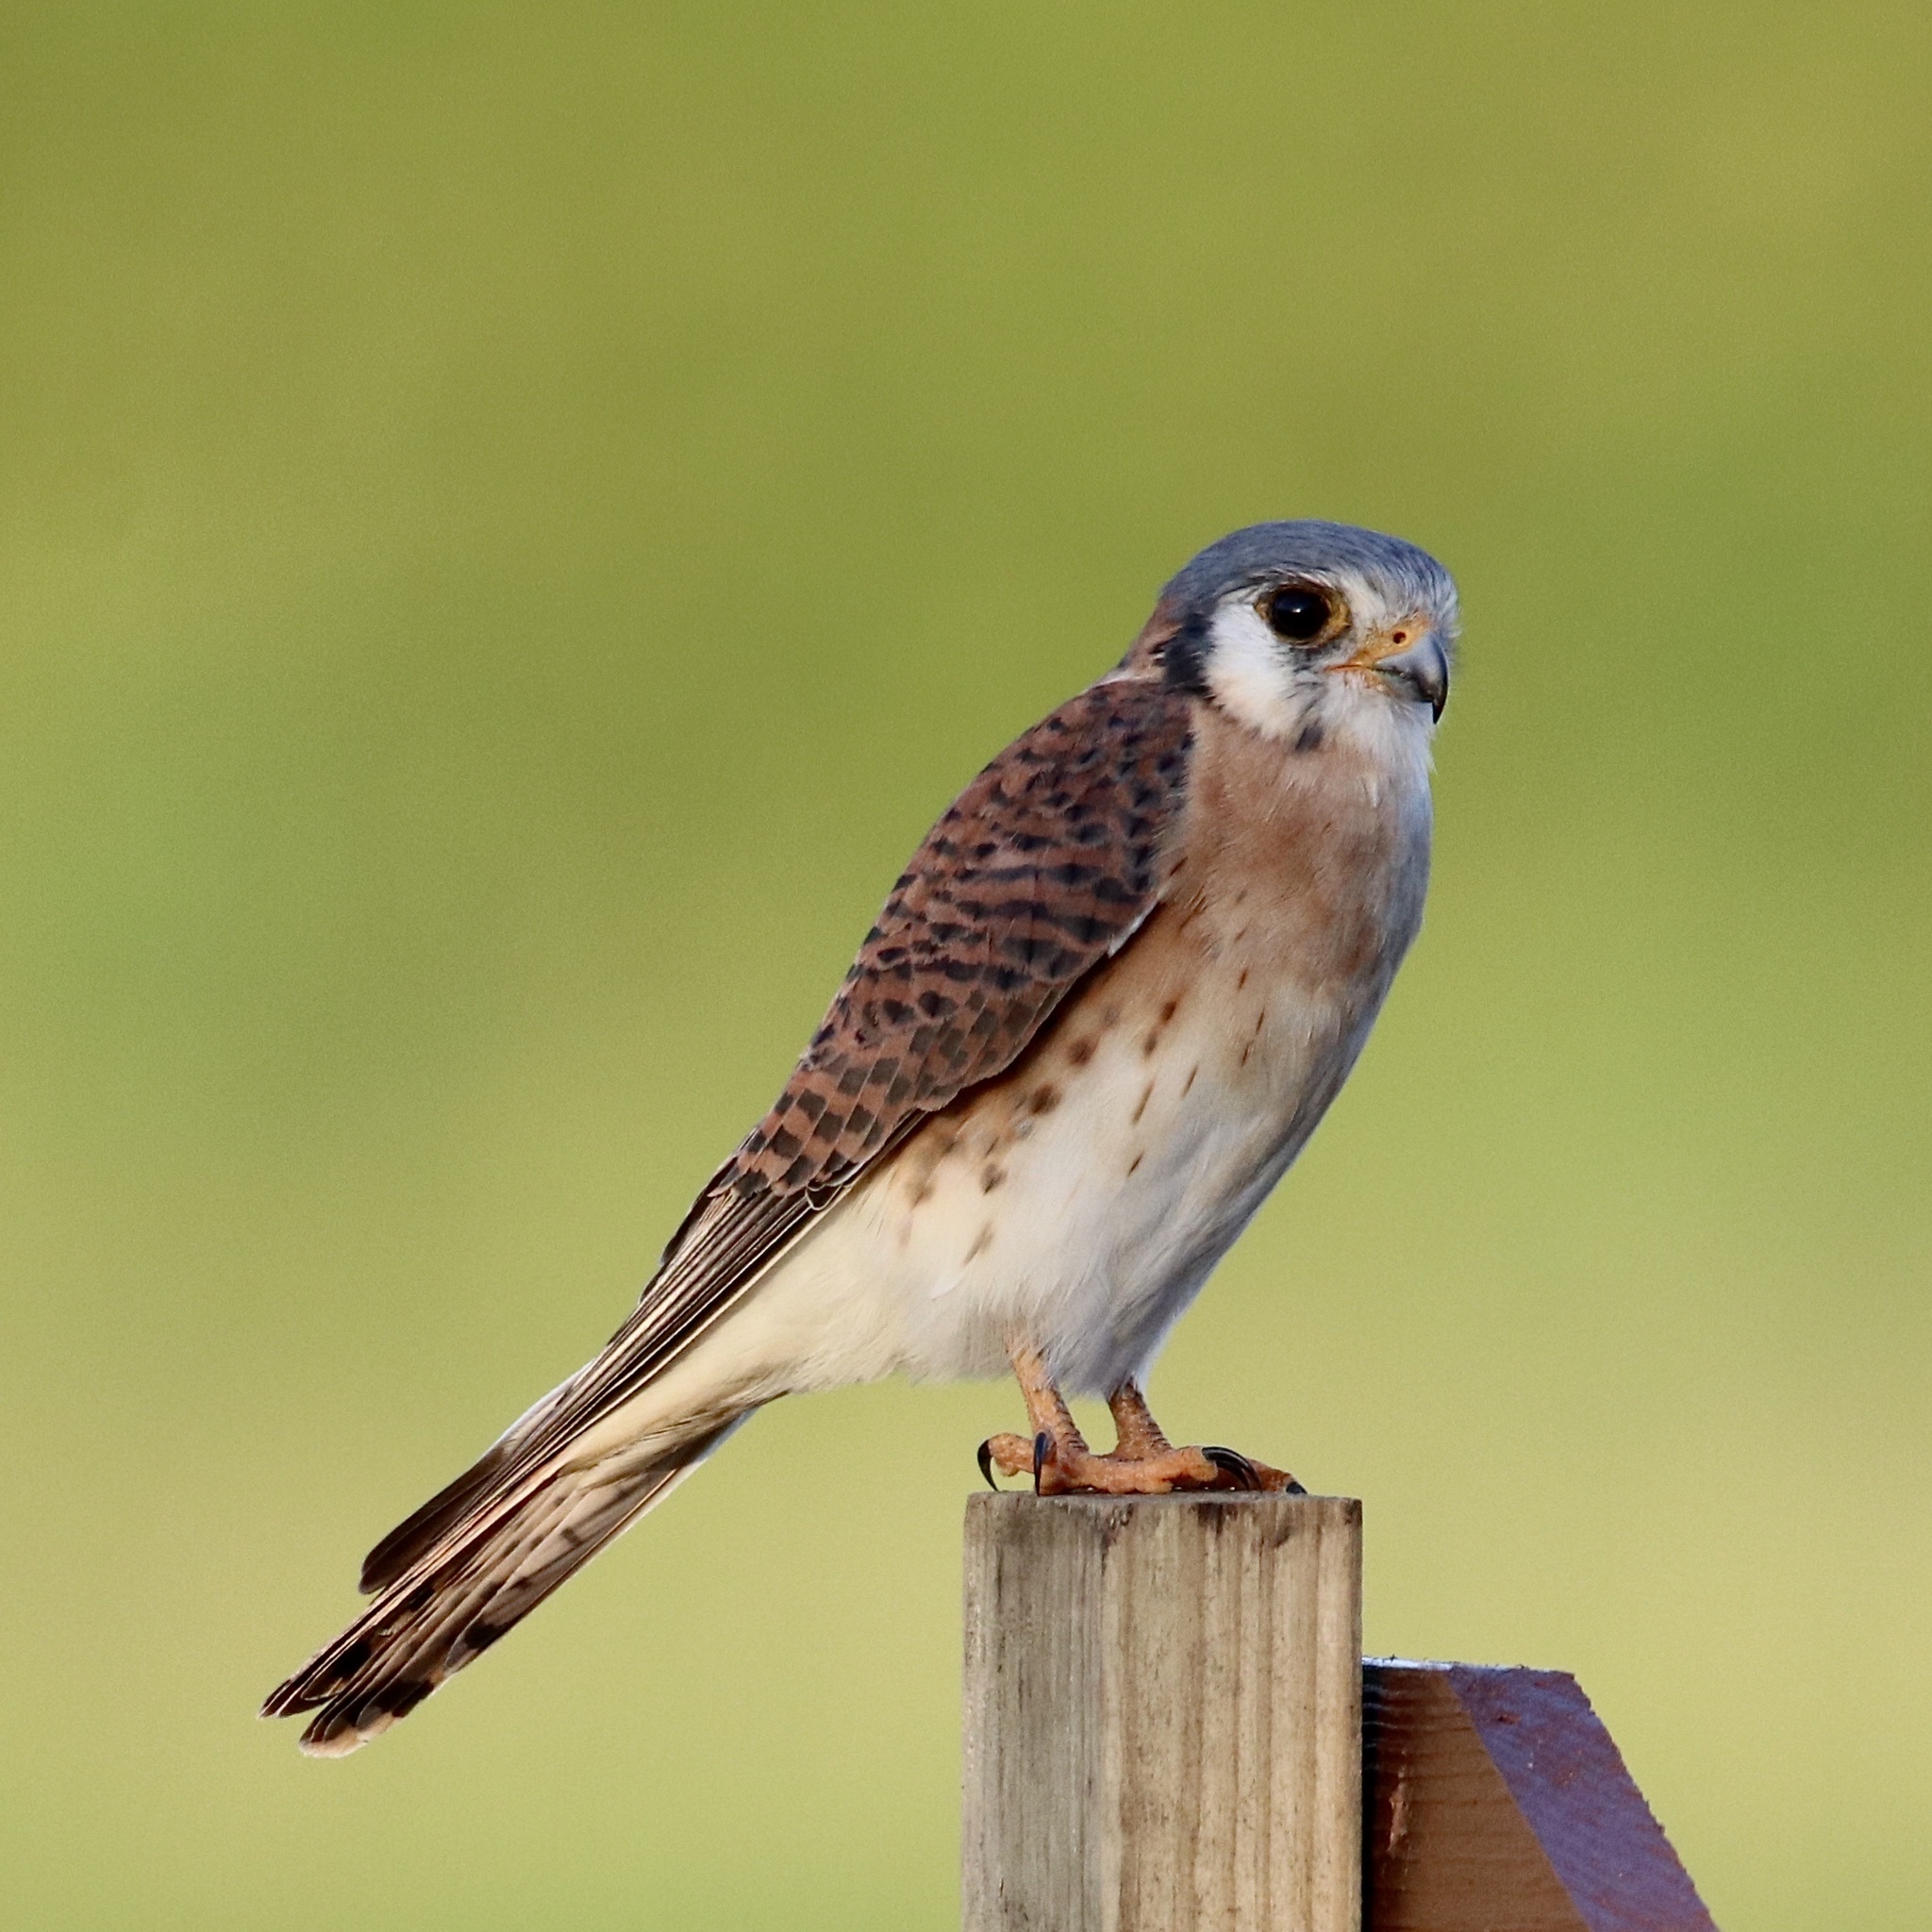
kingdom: Animalia
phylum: Chordata
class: Aves
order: Falconiformes
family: Falconidae
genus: Falco
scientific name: Falco sparverius
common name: American kestrel
